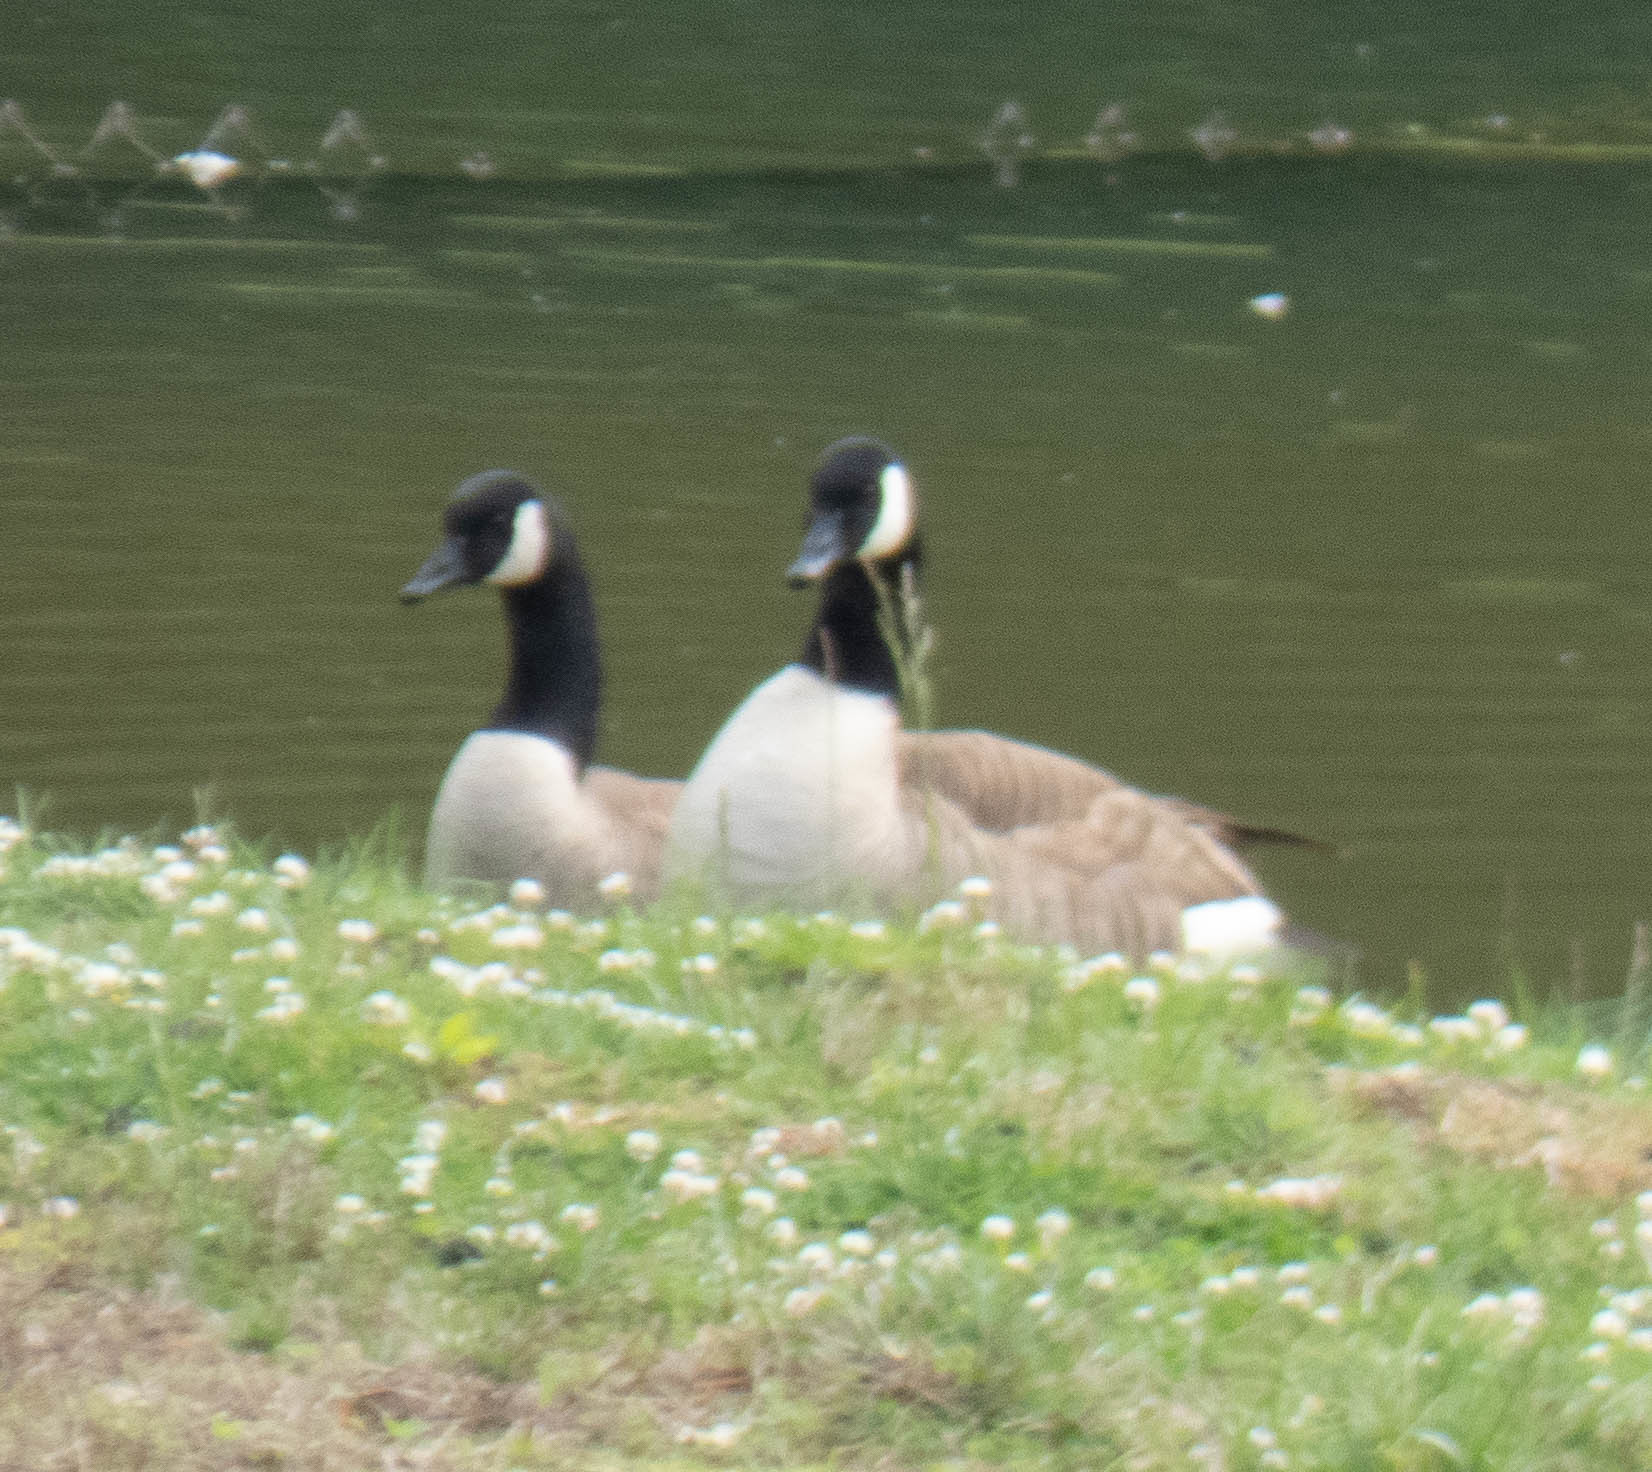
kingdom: Animalia
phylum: Chordata
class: Aves
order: Anseriformes
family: Anatidae
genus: Branta
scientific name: Branta canadensis
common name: Canada goose
